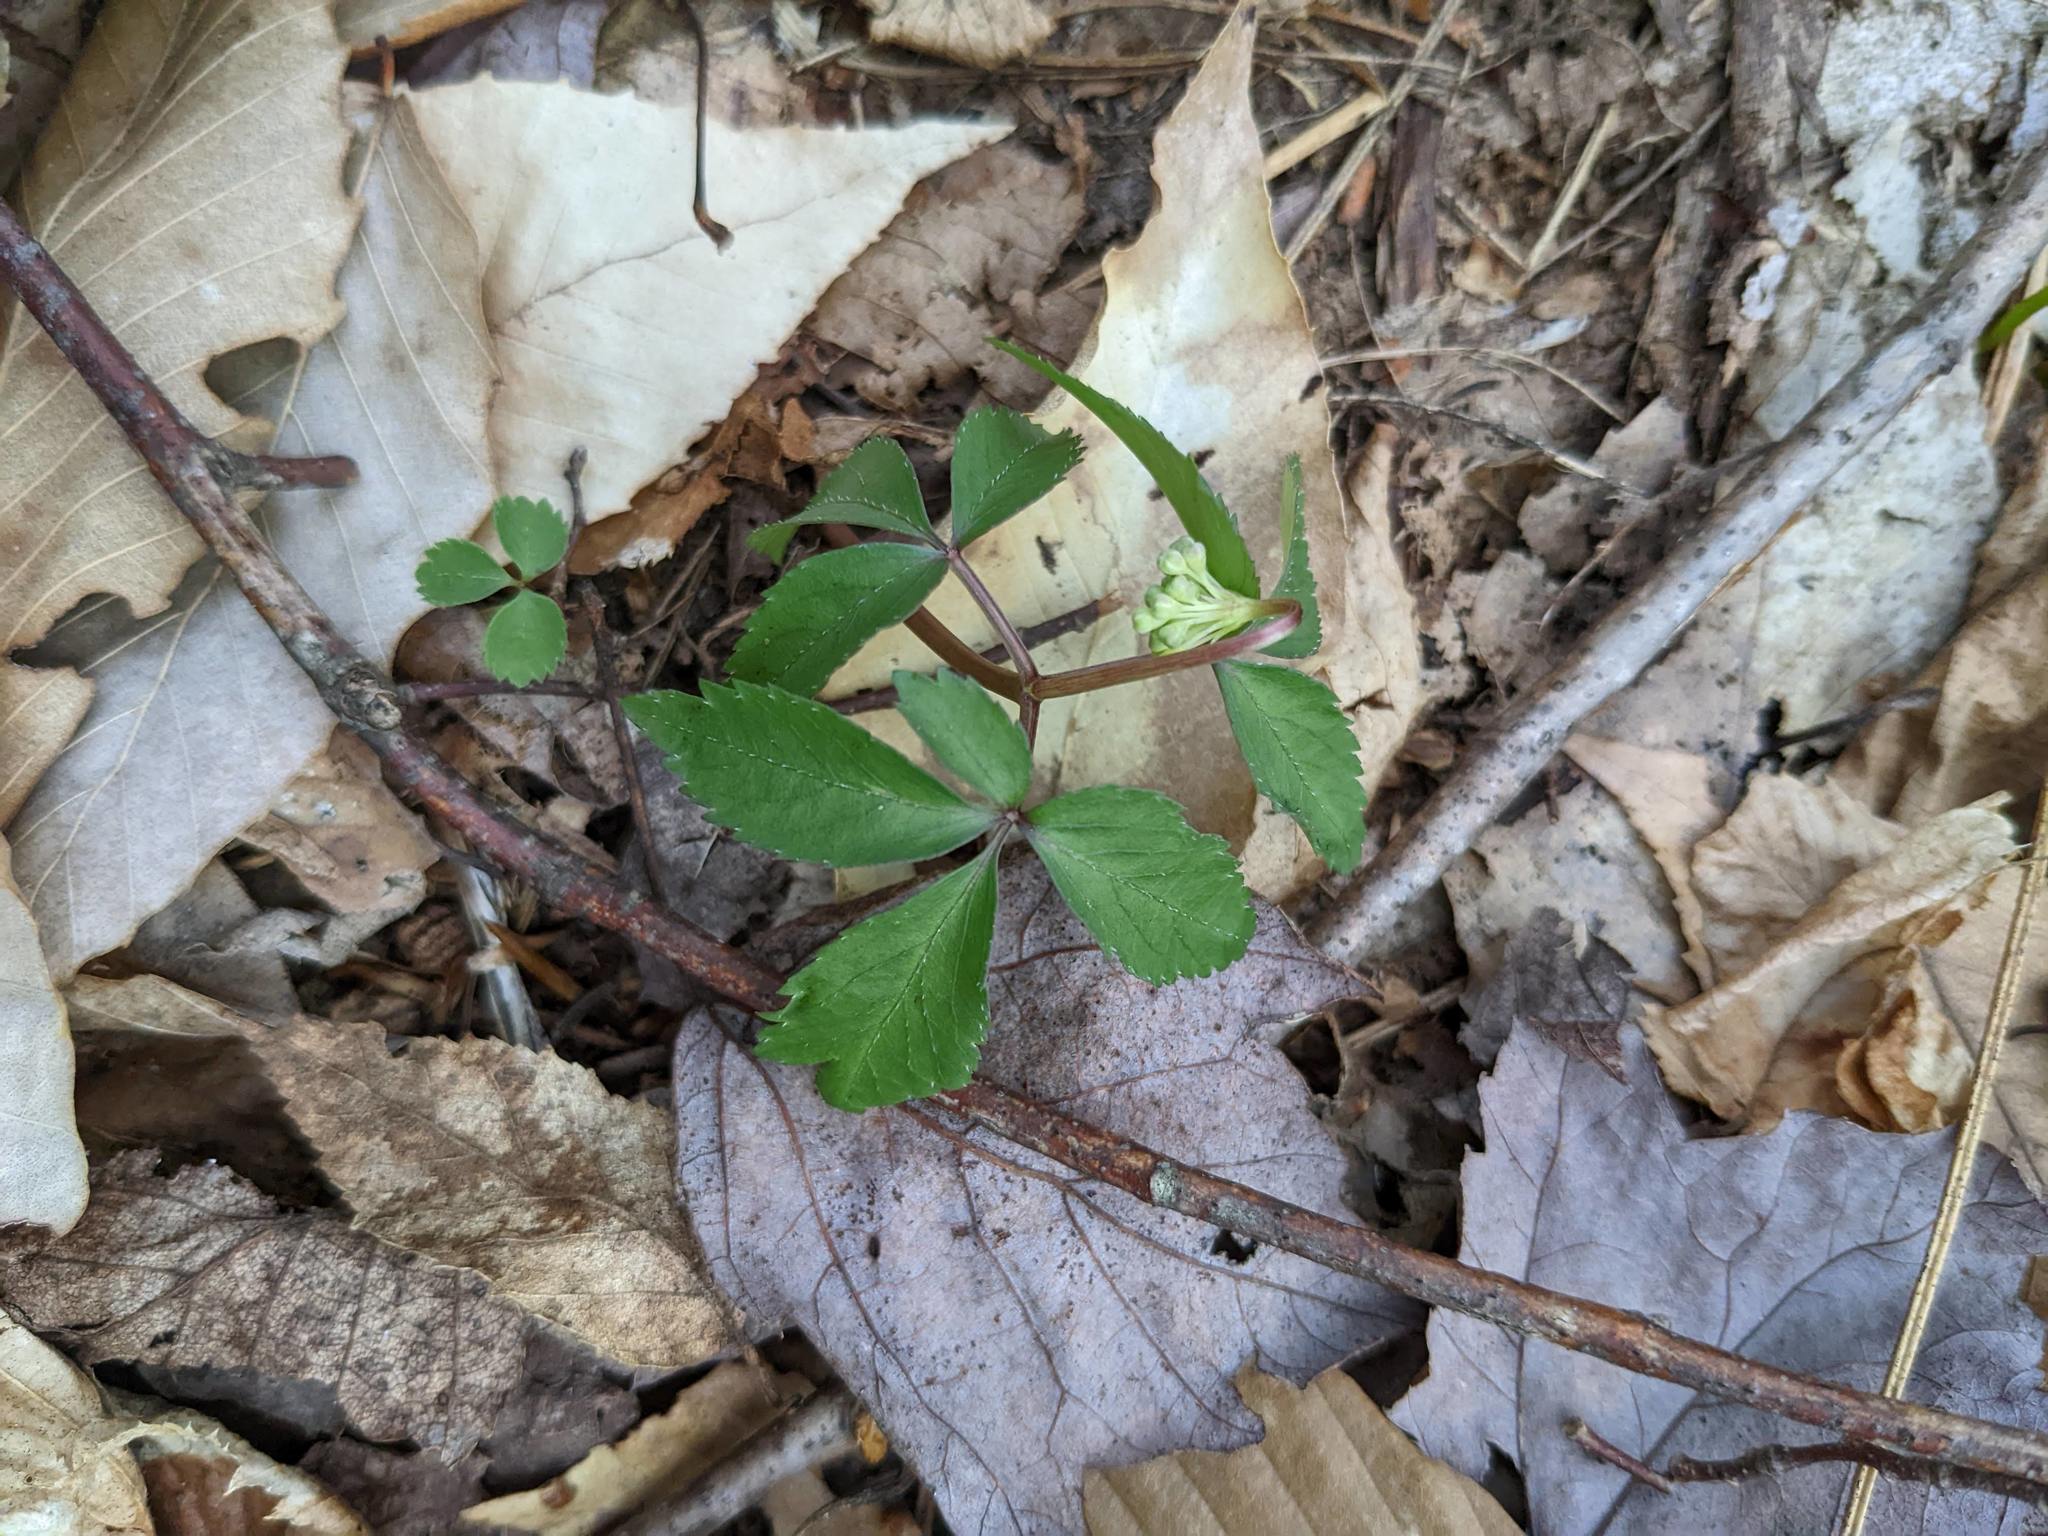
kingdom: Plantae
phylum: Tracheophyta
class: Magnoliopsida
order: Apiales
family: Araliaceae
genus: Panax
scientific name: Panax trifolius
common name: Dwarf ginseng
